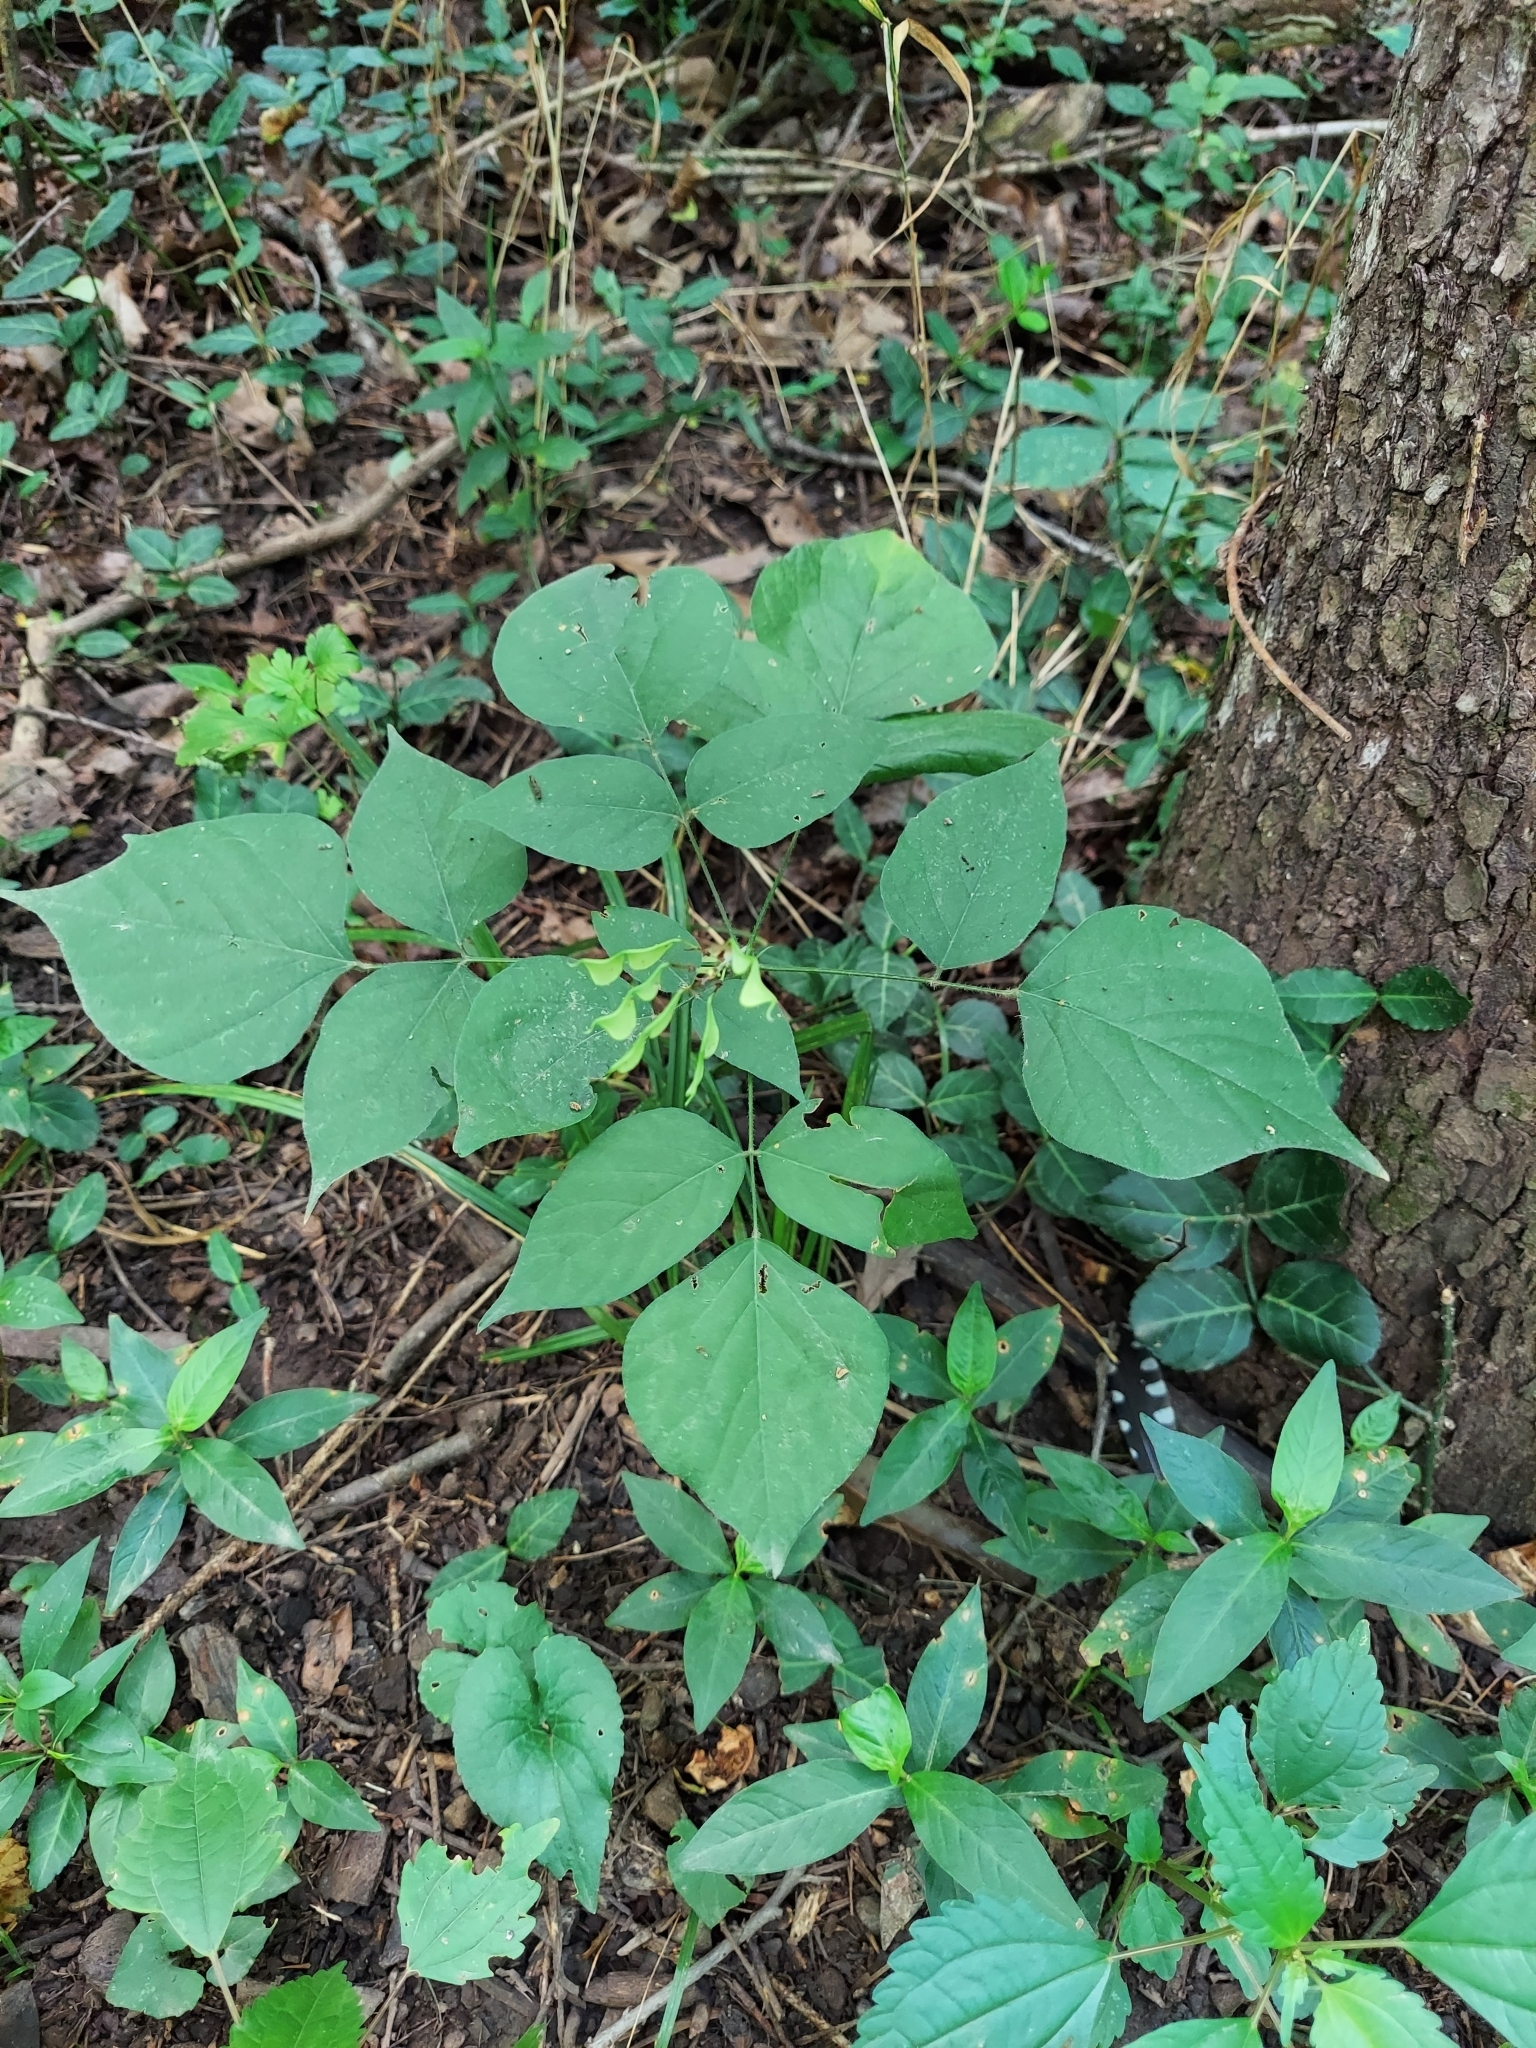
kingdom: Plantae
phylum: Tracheophyta
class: Magnoliopsida
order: Fabales
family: Fabaceae
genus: Hylodesmum
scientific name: Hylodesmum glutinosum
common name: Clustered-leaved tick-trefoil
